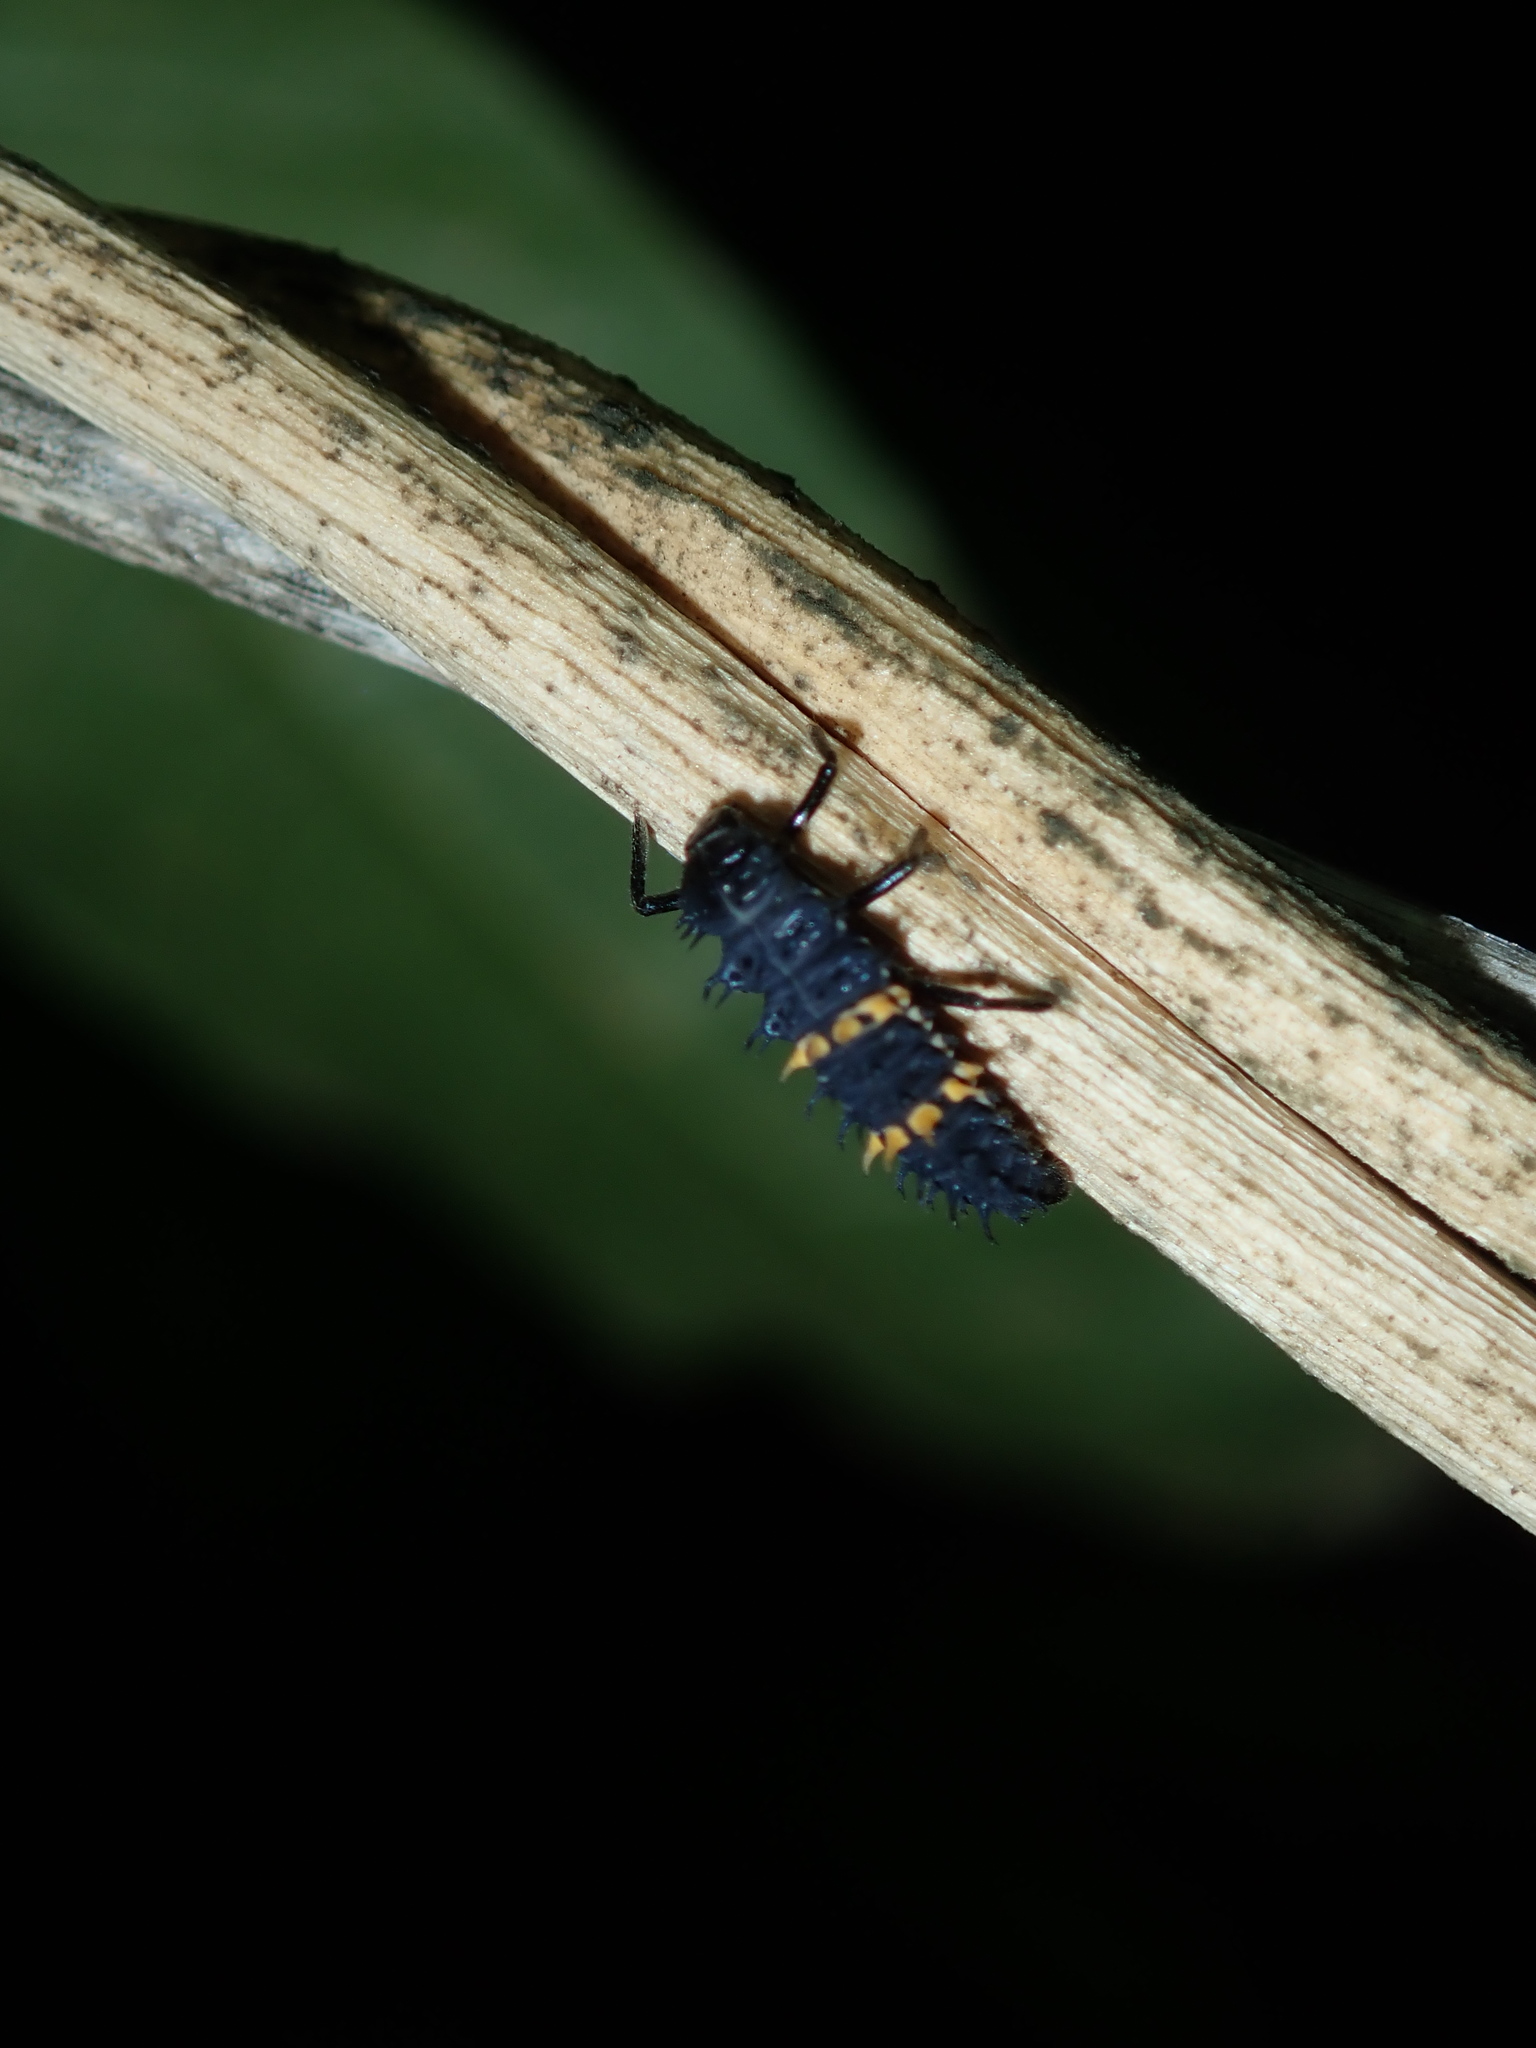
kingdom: Animalia
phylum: Arthropoda
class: Insecta
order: Coleoptera
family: Coccinellidae
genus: Harmonia
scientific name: Harmonia conformis
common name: Common spotted ladybird beetle
